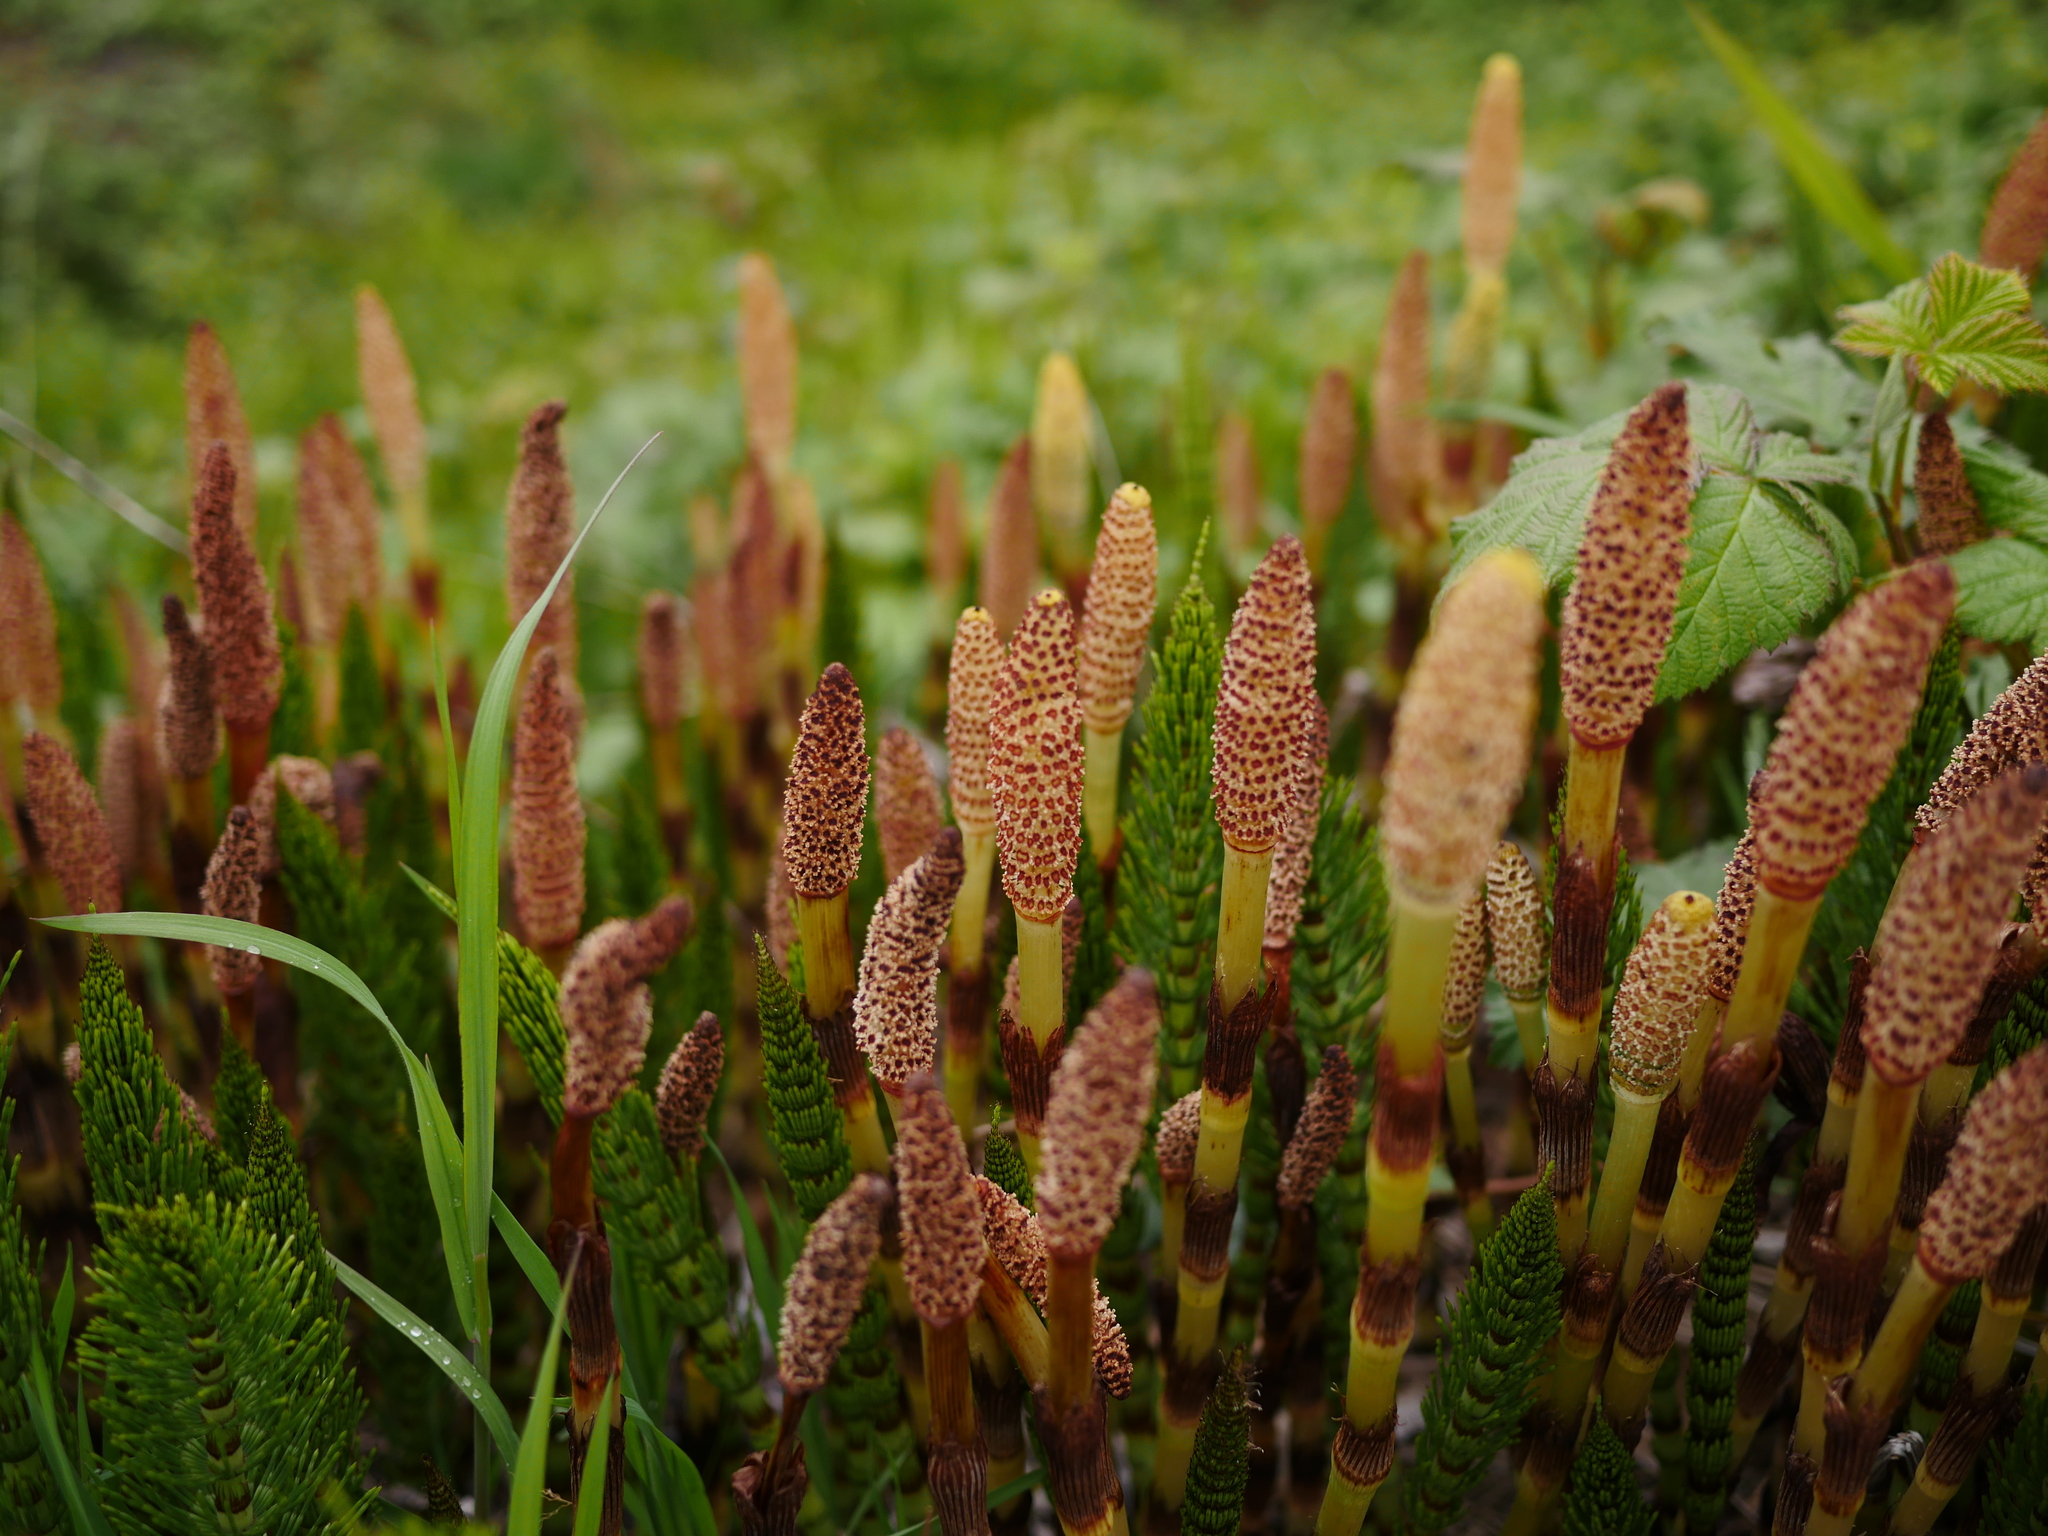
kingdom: Plantae
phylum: Tracheophyta
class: Polypodiopsida
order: Equisetales
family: Equisetaceae
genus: Equisetum
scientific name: Equisetum braunii
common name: Braun's horsetail
